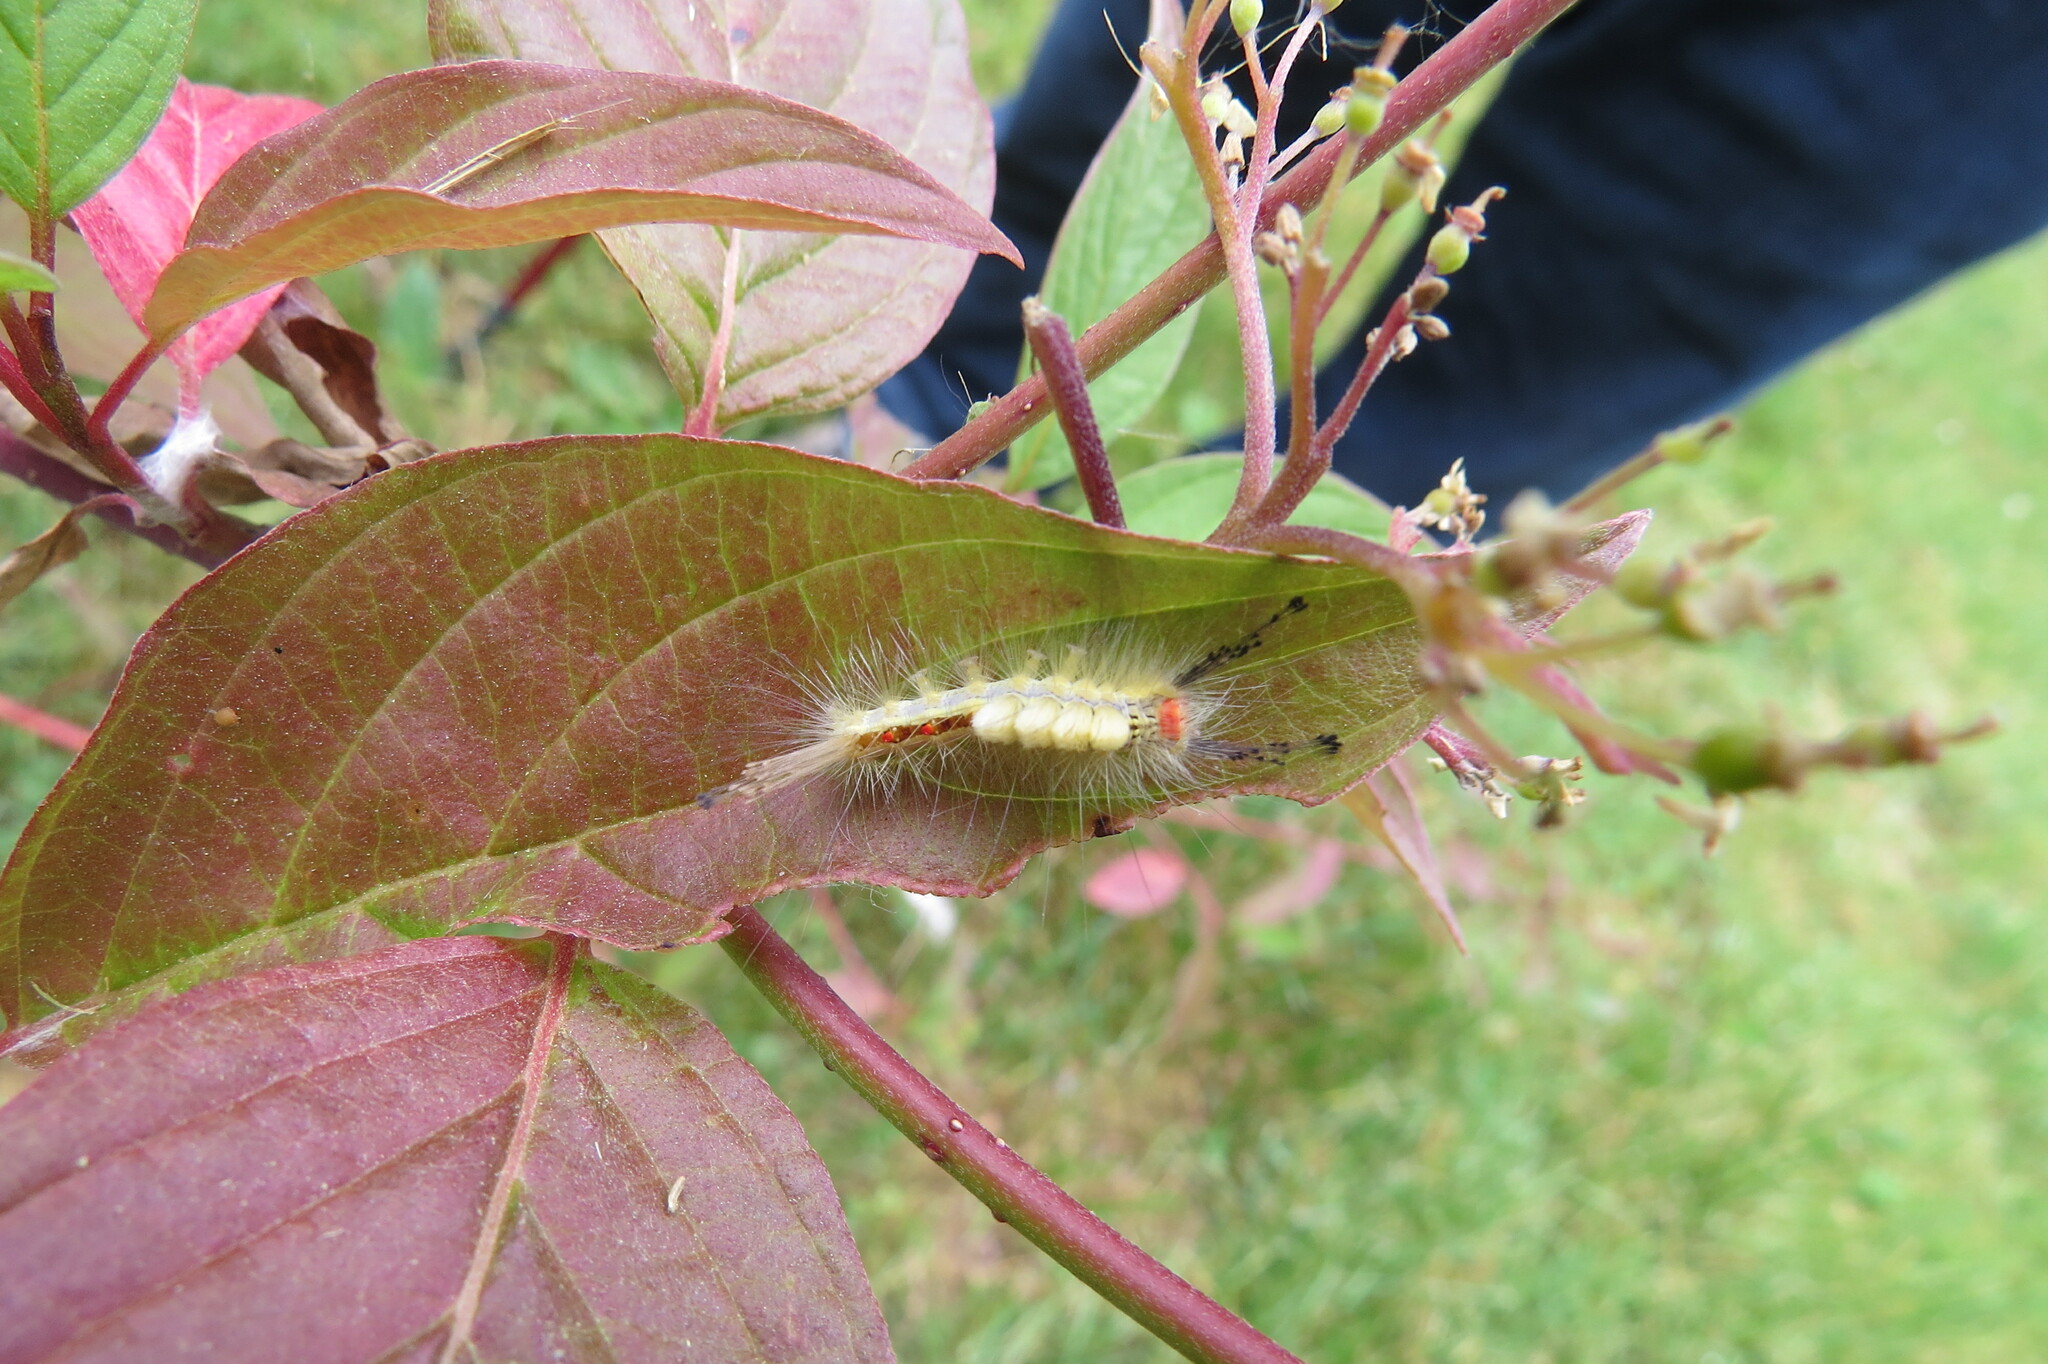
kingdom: Animalia
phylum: Arthropoda
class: Insecta
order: Lepidoptera
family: Erebidae
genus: Orgyia
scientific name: Orgyia leucostigma
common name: White-marked tussock moth
